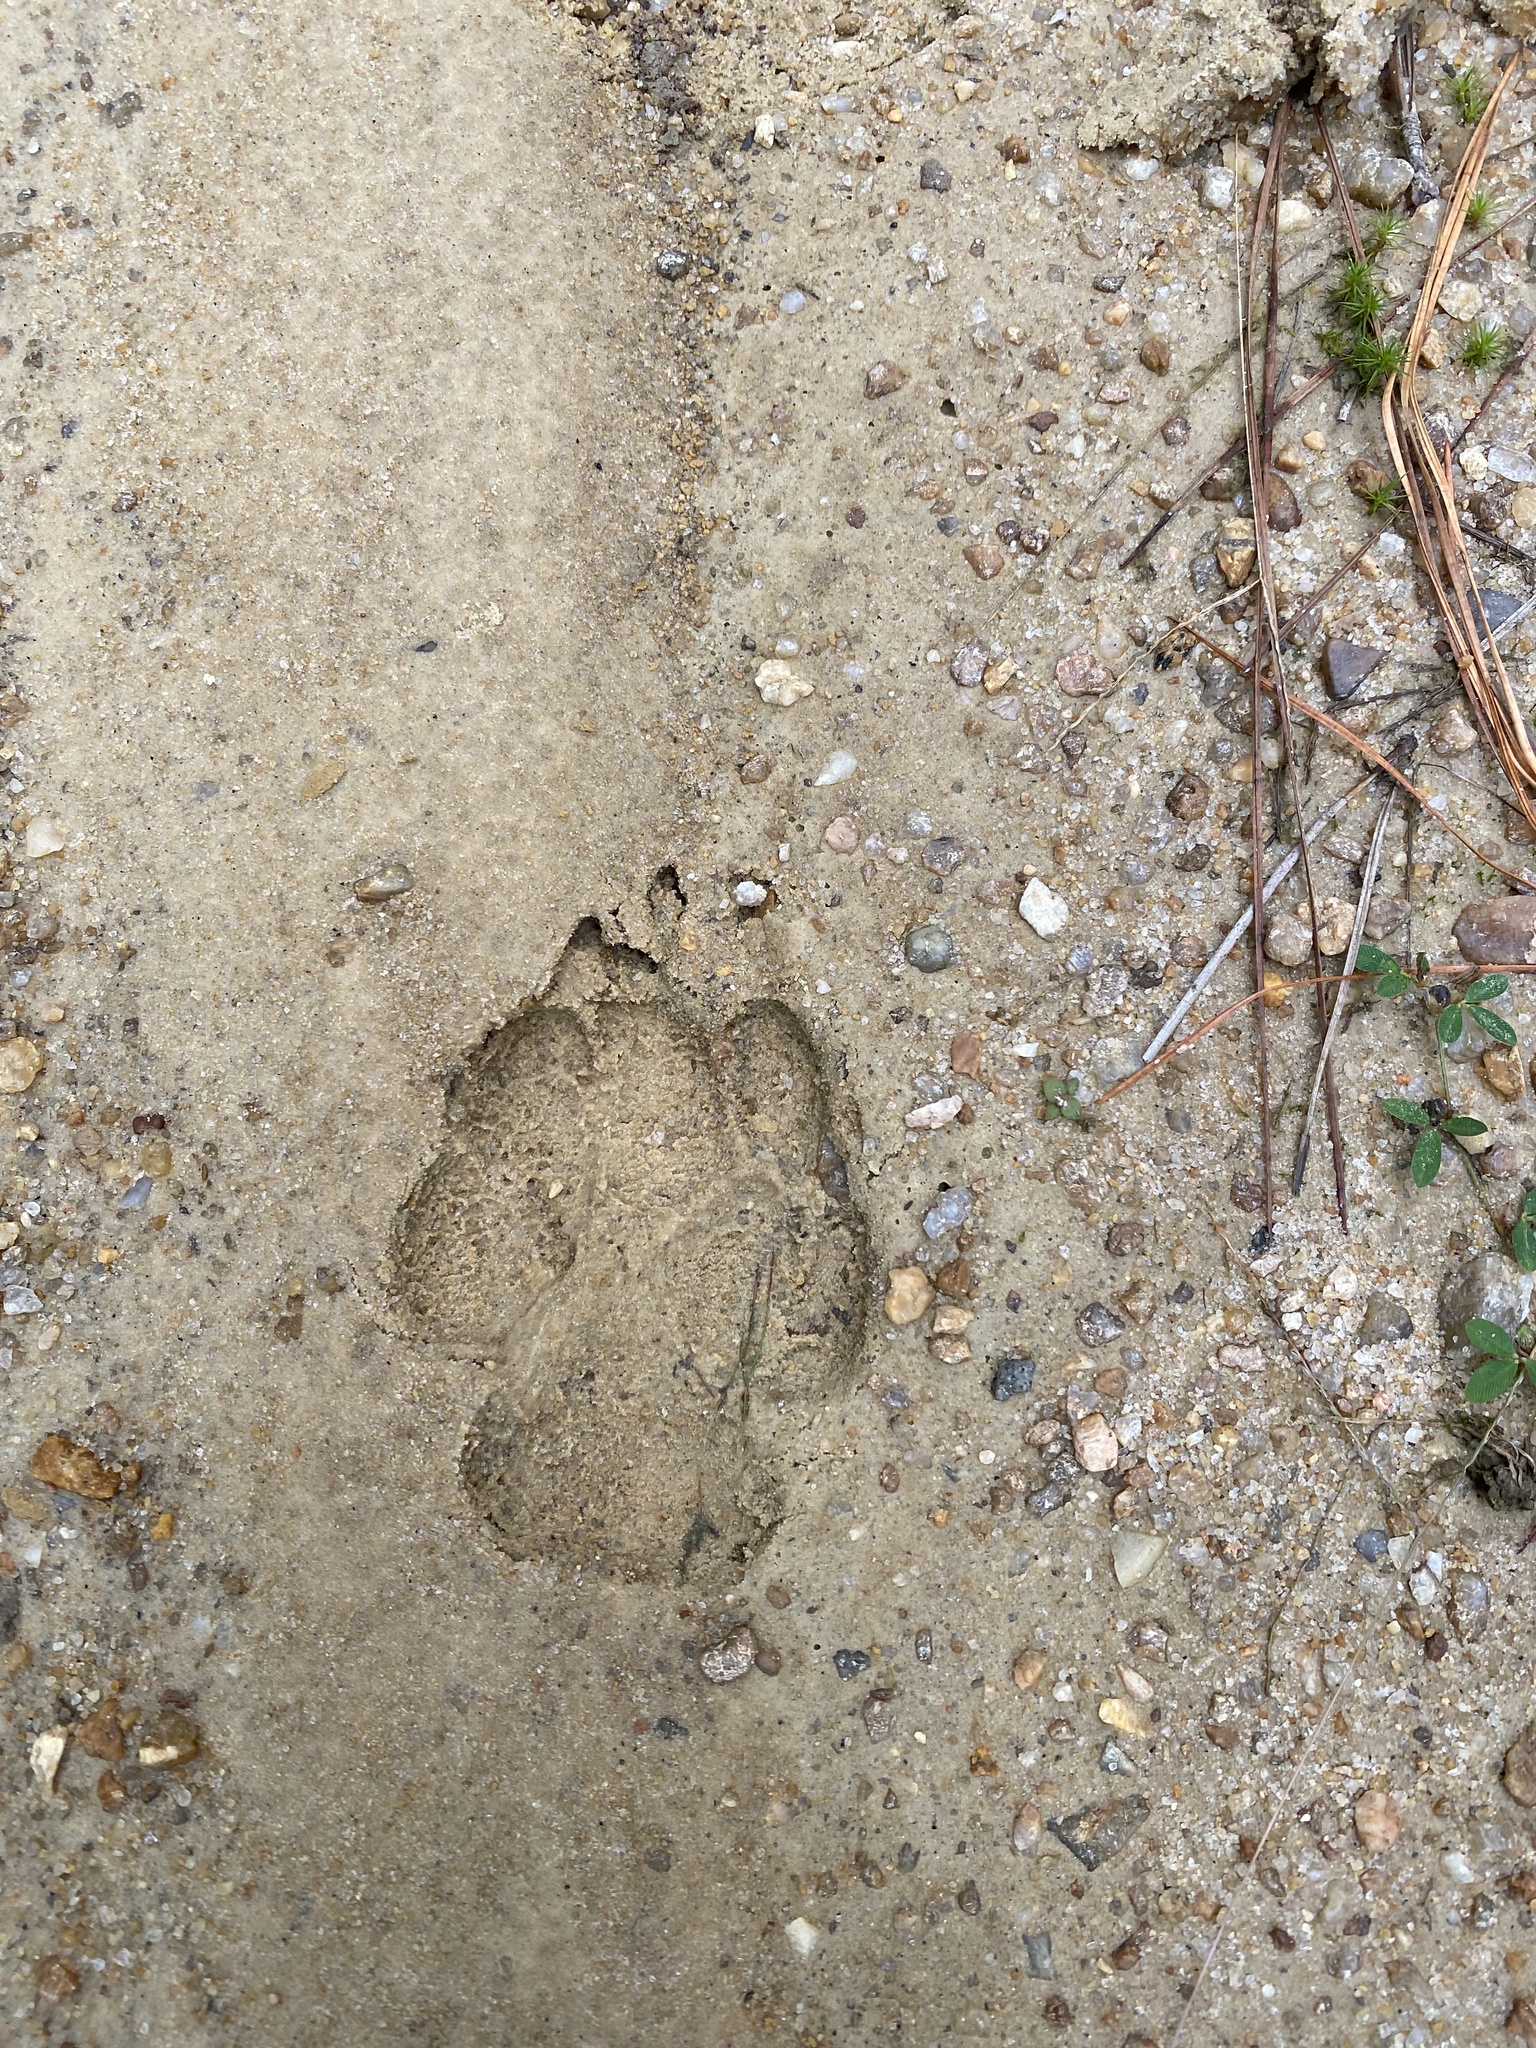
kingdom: Animalia
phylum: Chordata
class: Mammalia
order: Carnivora
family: Canidae
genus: Canis
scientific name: Canis latrans
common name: Coyote
